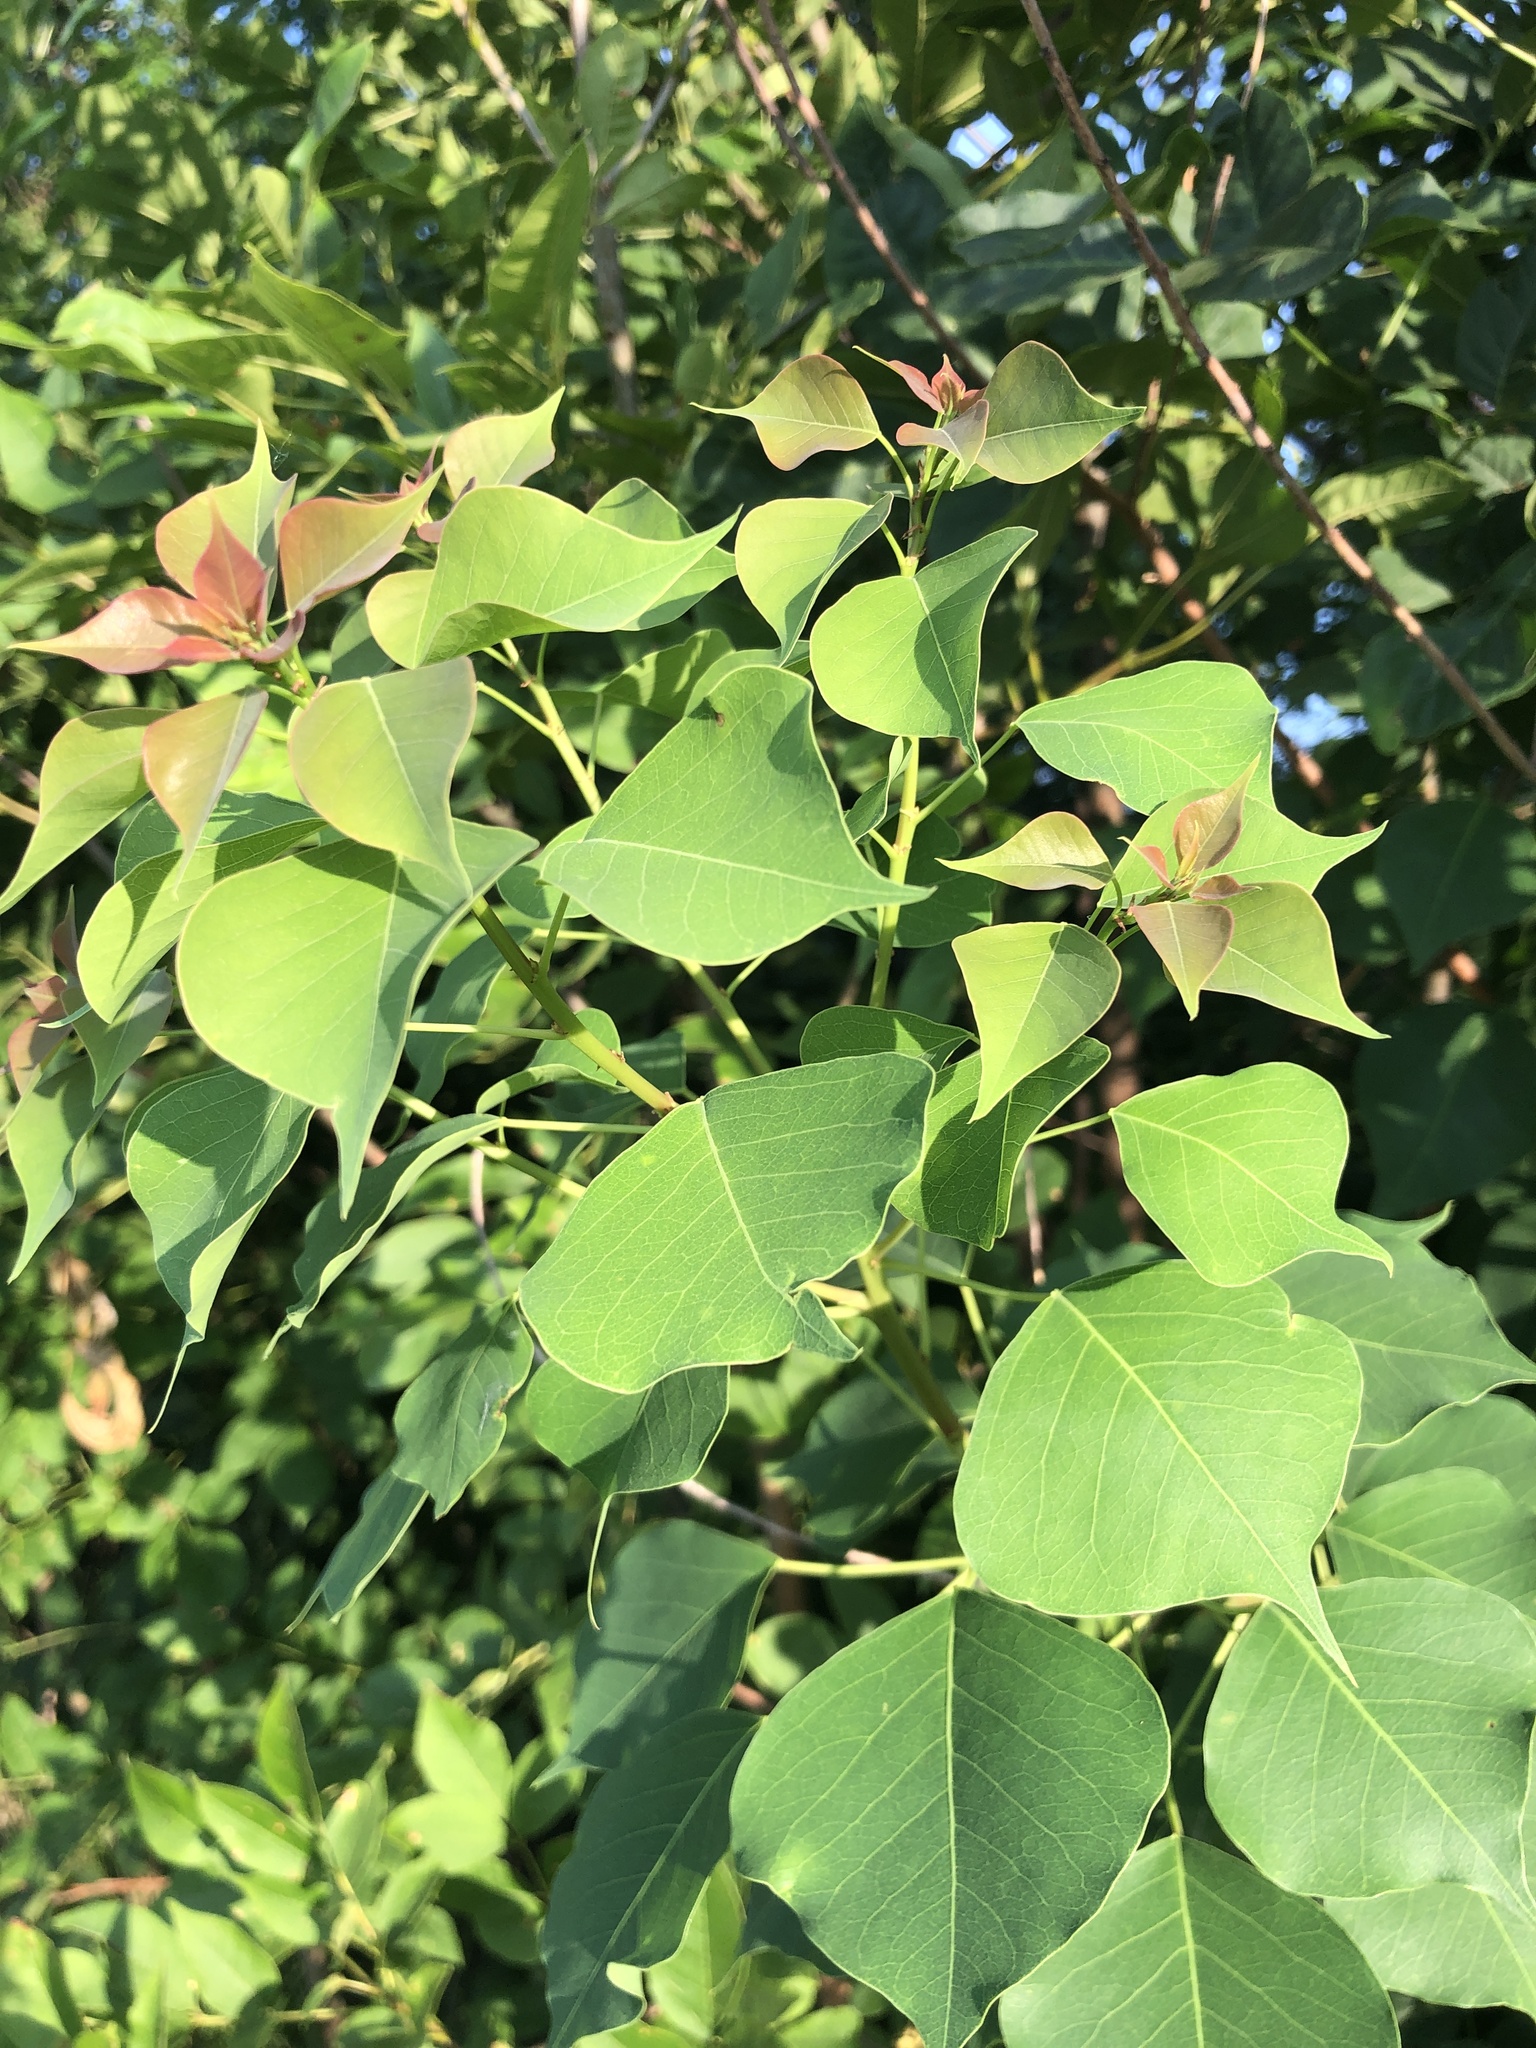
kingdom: Plantae
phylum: Tracheophyta
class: Magnoliopsida
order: Malpighiales
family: Euphorbiaceae
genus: Triadica
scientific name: Triadica sebifera
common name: Chinese tallow
